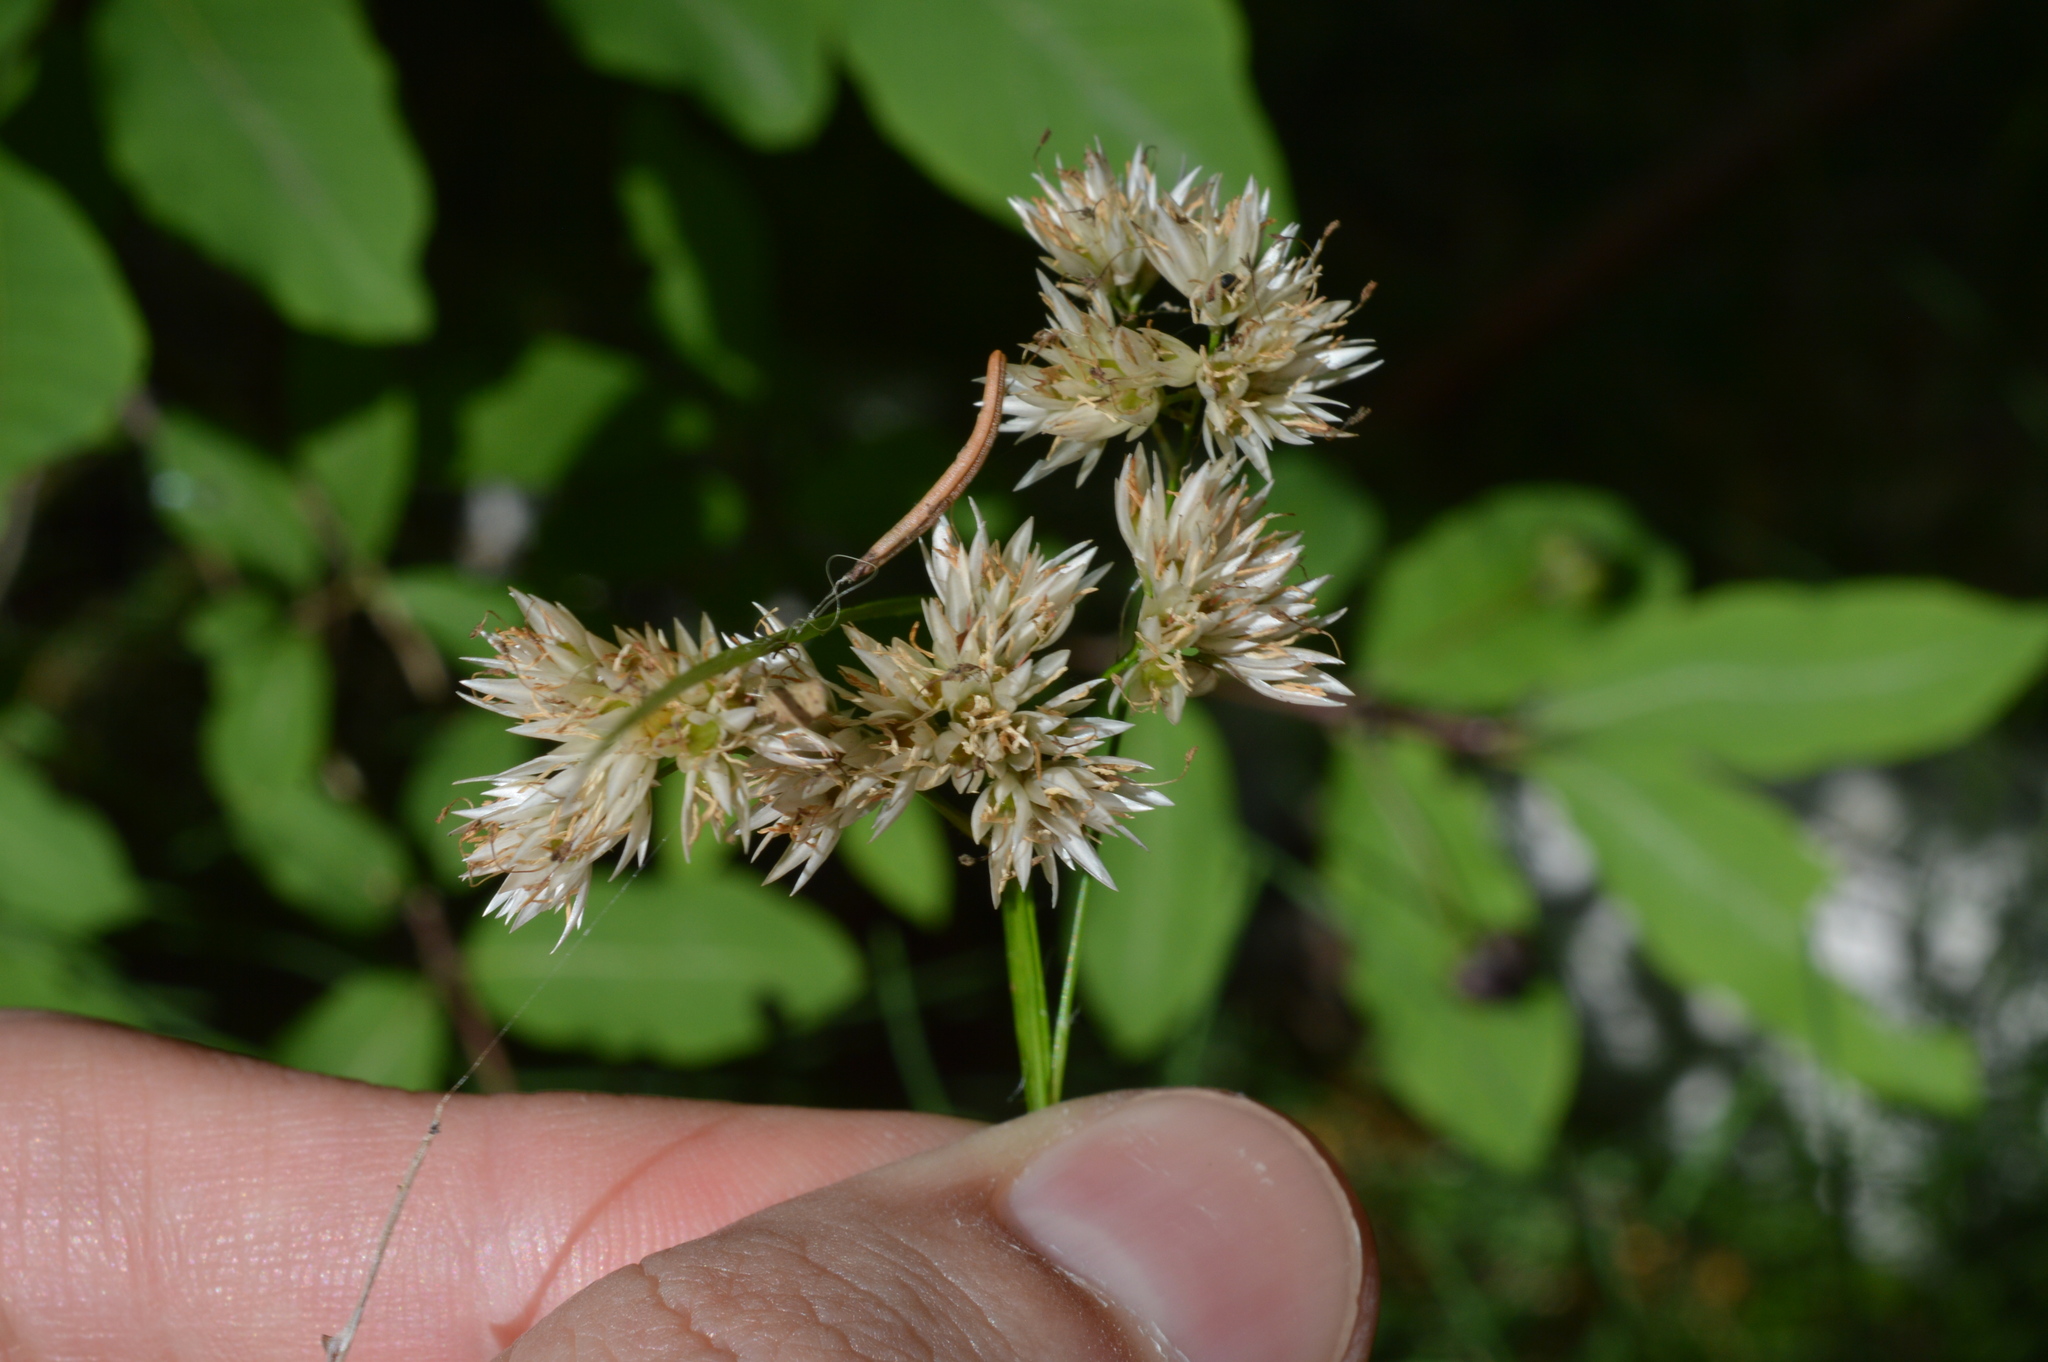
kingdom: Plantae
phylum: Tracheophyta
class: Liliopsida
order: Poales
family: Juncaceae
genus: Luzula
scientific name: Luzula nivea
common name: Snow-white wood-rush
